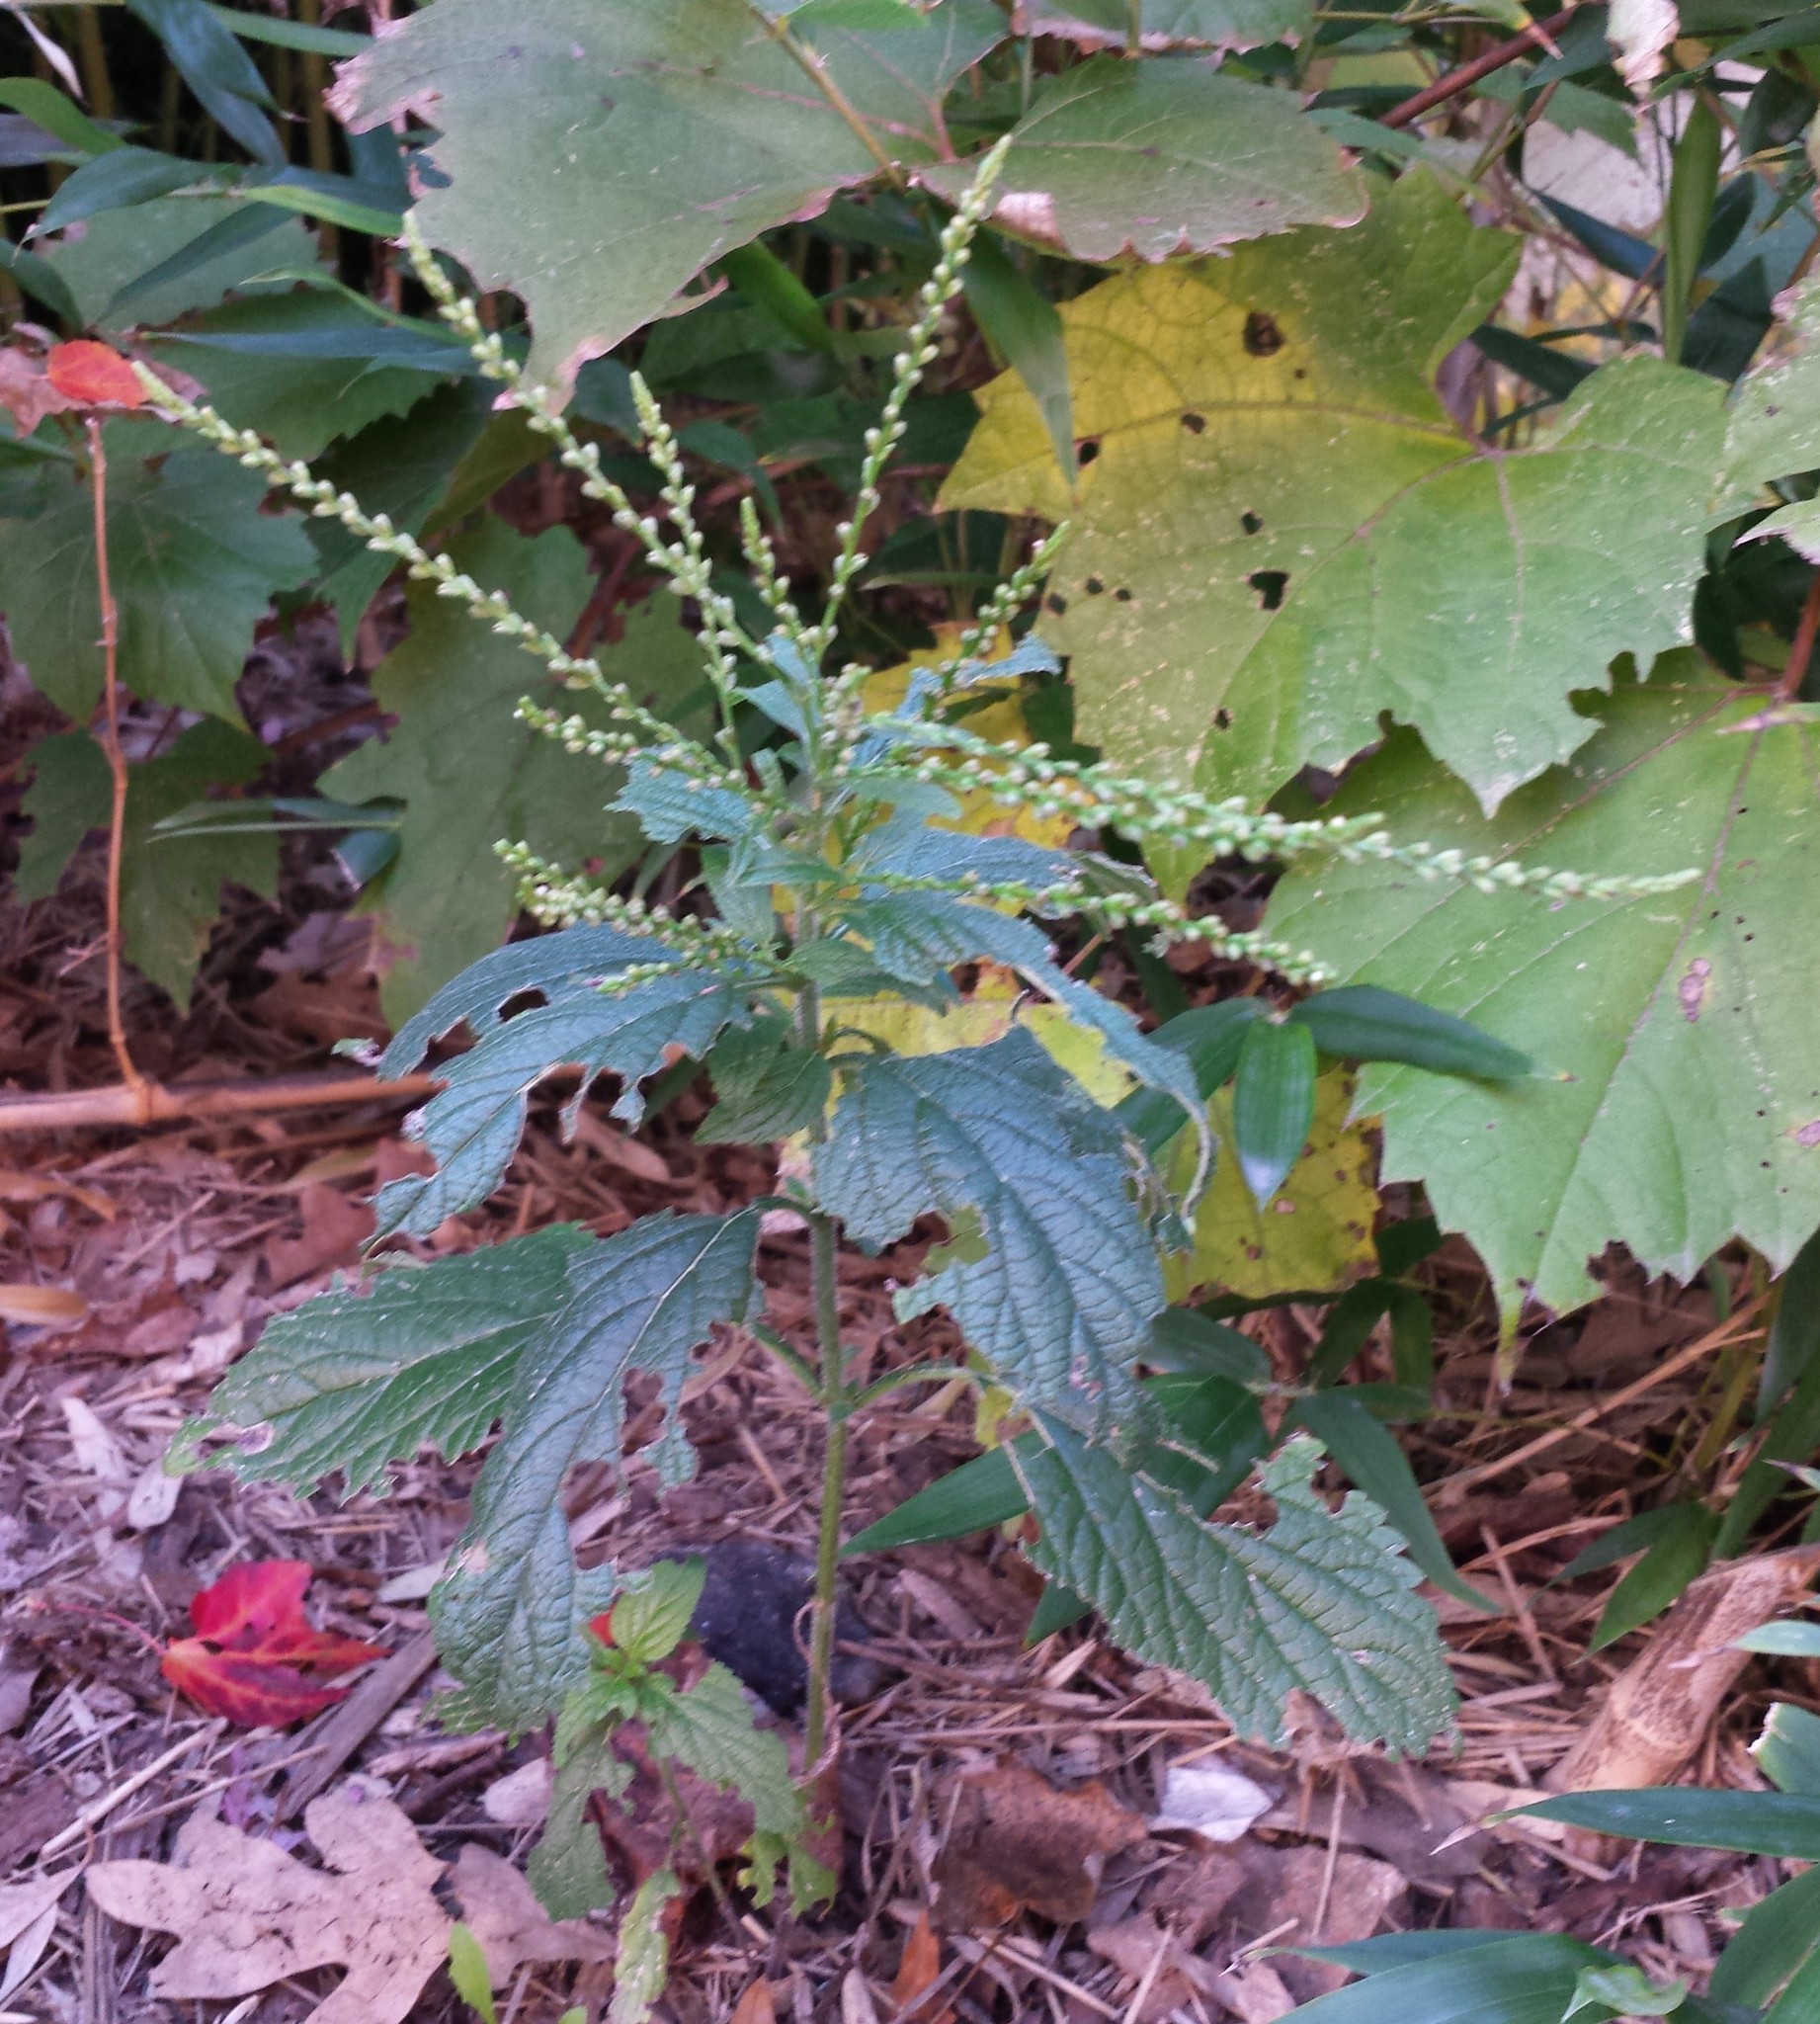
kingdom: Plantae
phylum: Tracheophyta
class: Magnoliopsida
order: Lamiales
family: Verbenaceae
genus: Verbena
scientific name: Verbena urticifolia
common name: Nettle-leaved vervain
